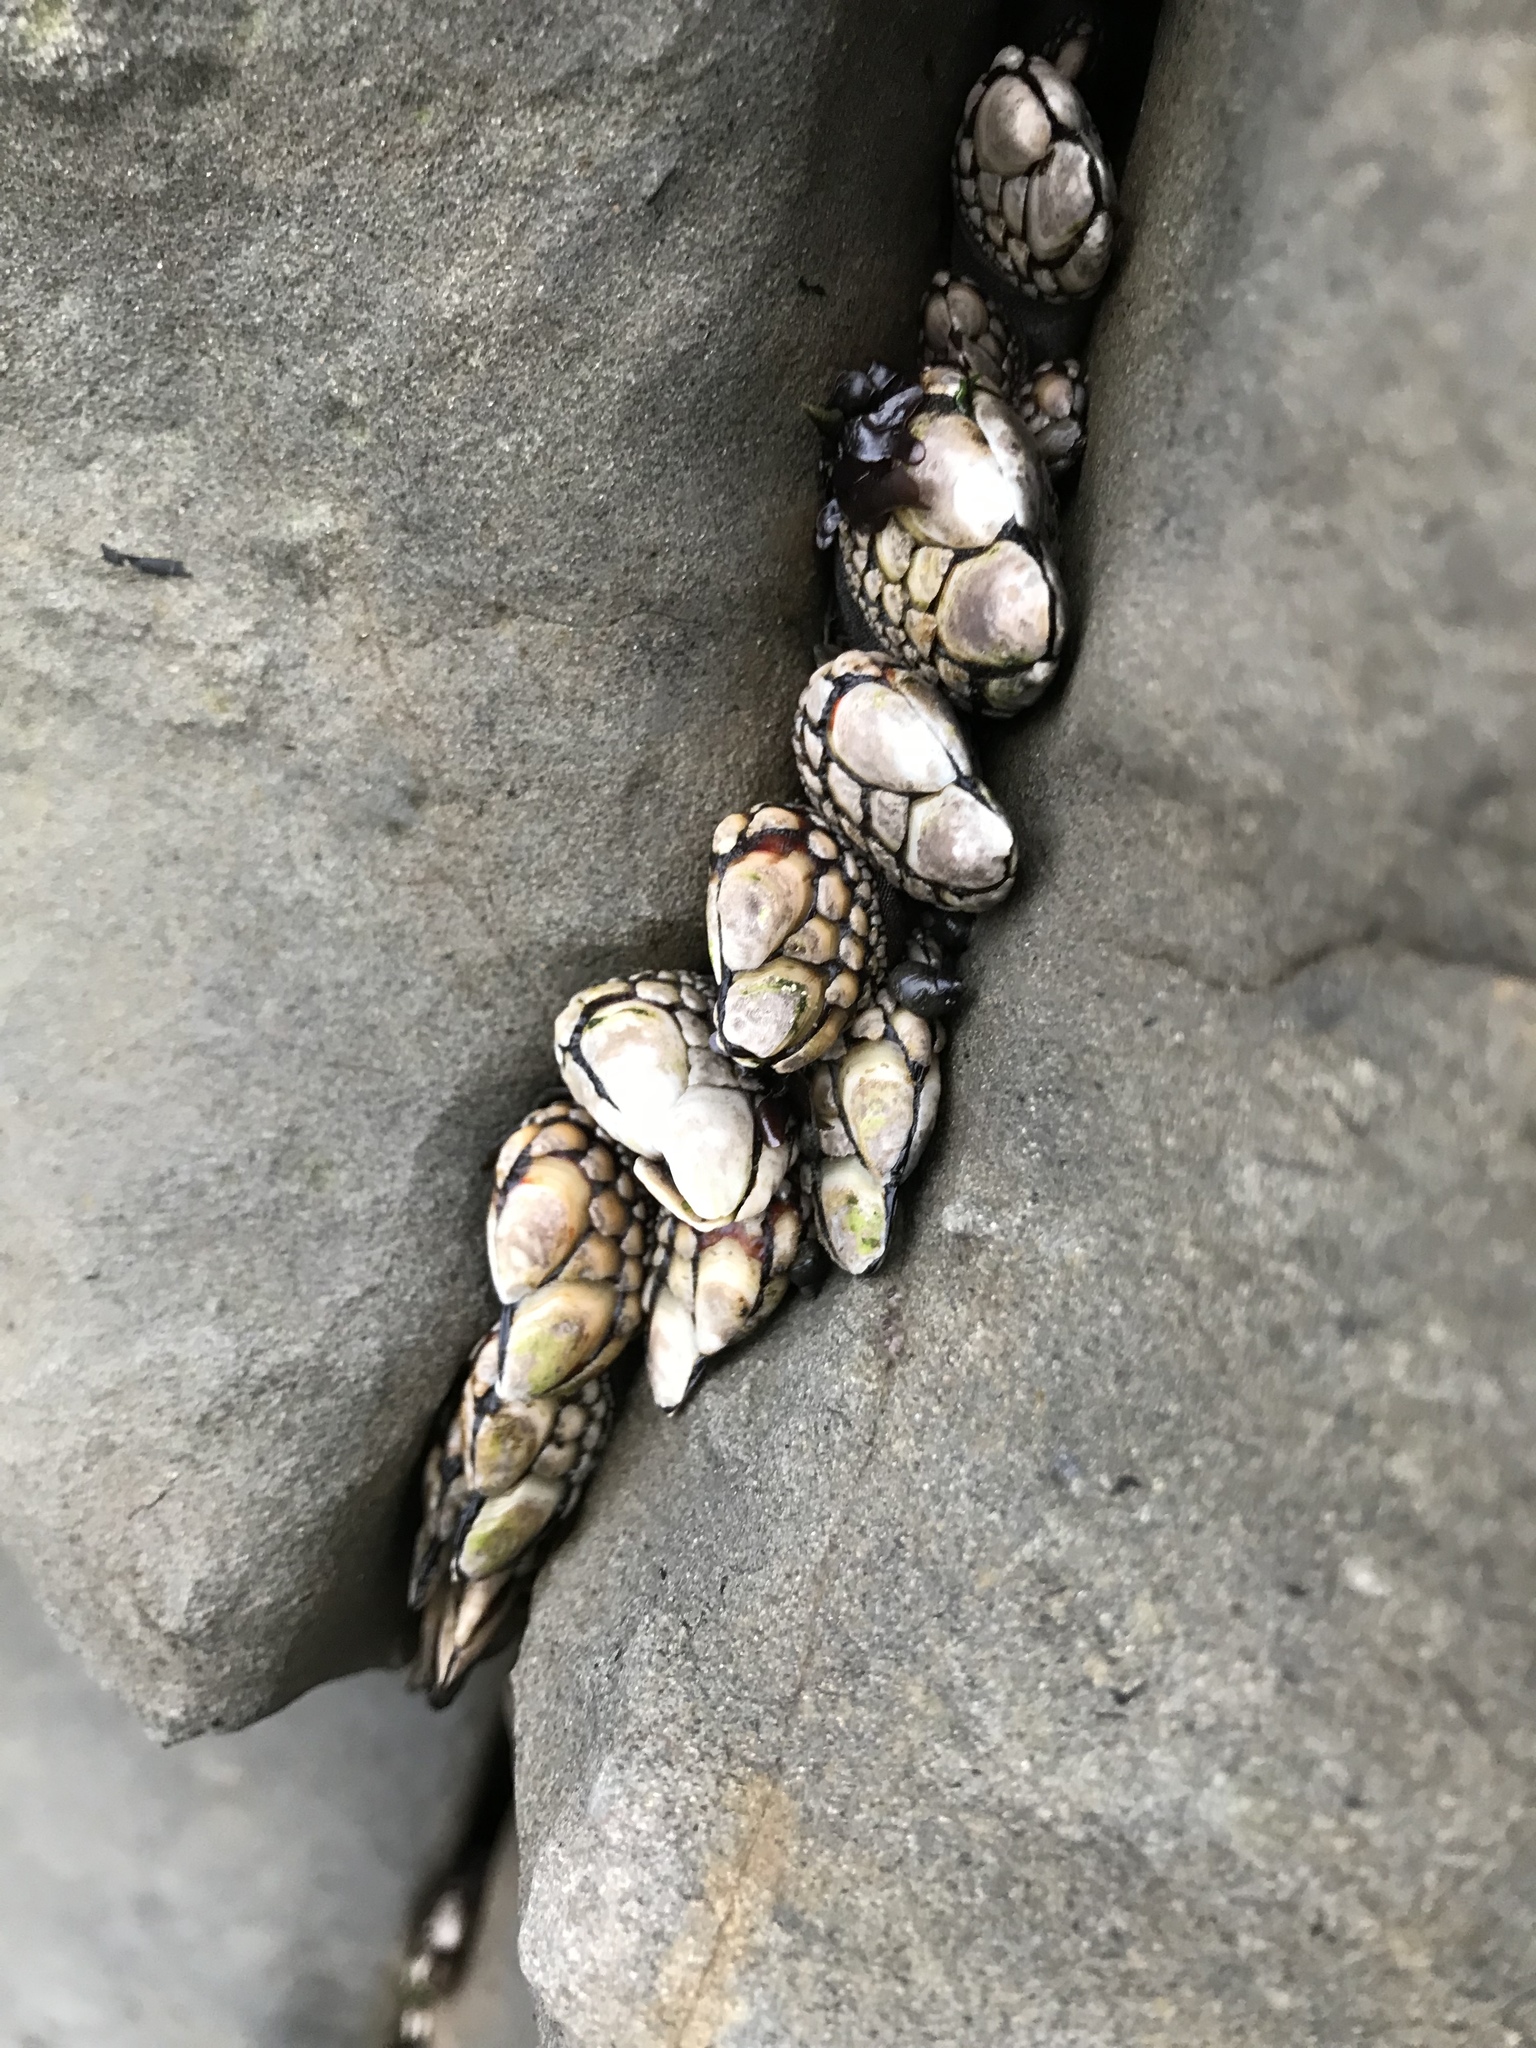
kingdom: Animalia
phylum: Arthropoda
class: Maxillopoda
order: Pedunculata
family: Pollicipedidae
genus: Pollicipes
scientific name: Pollicipes polymerus
